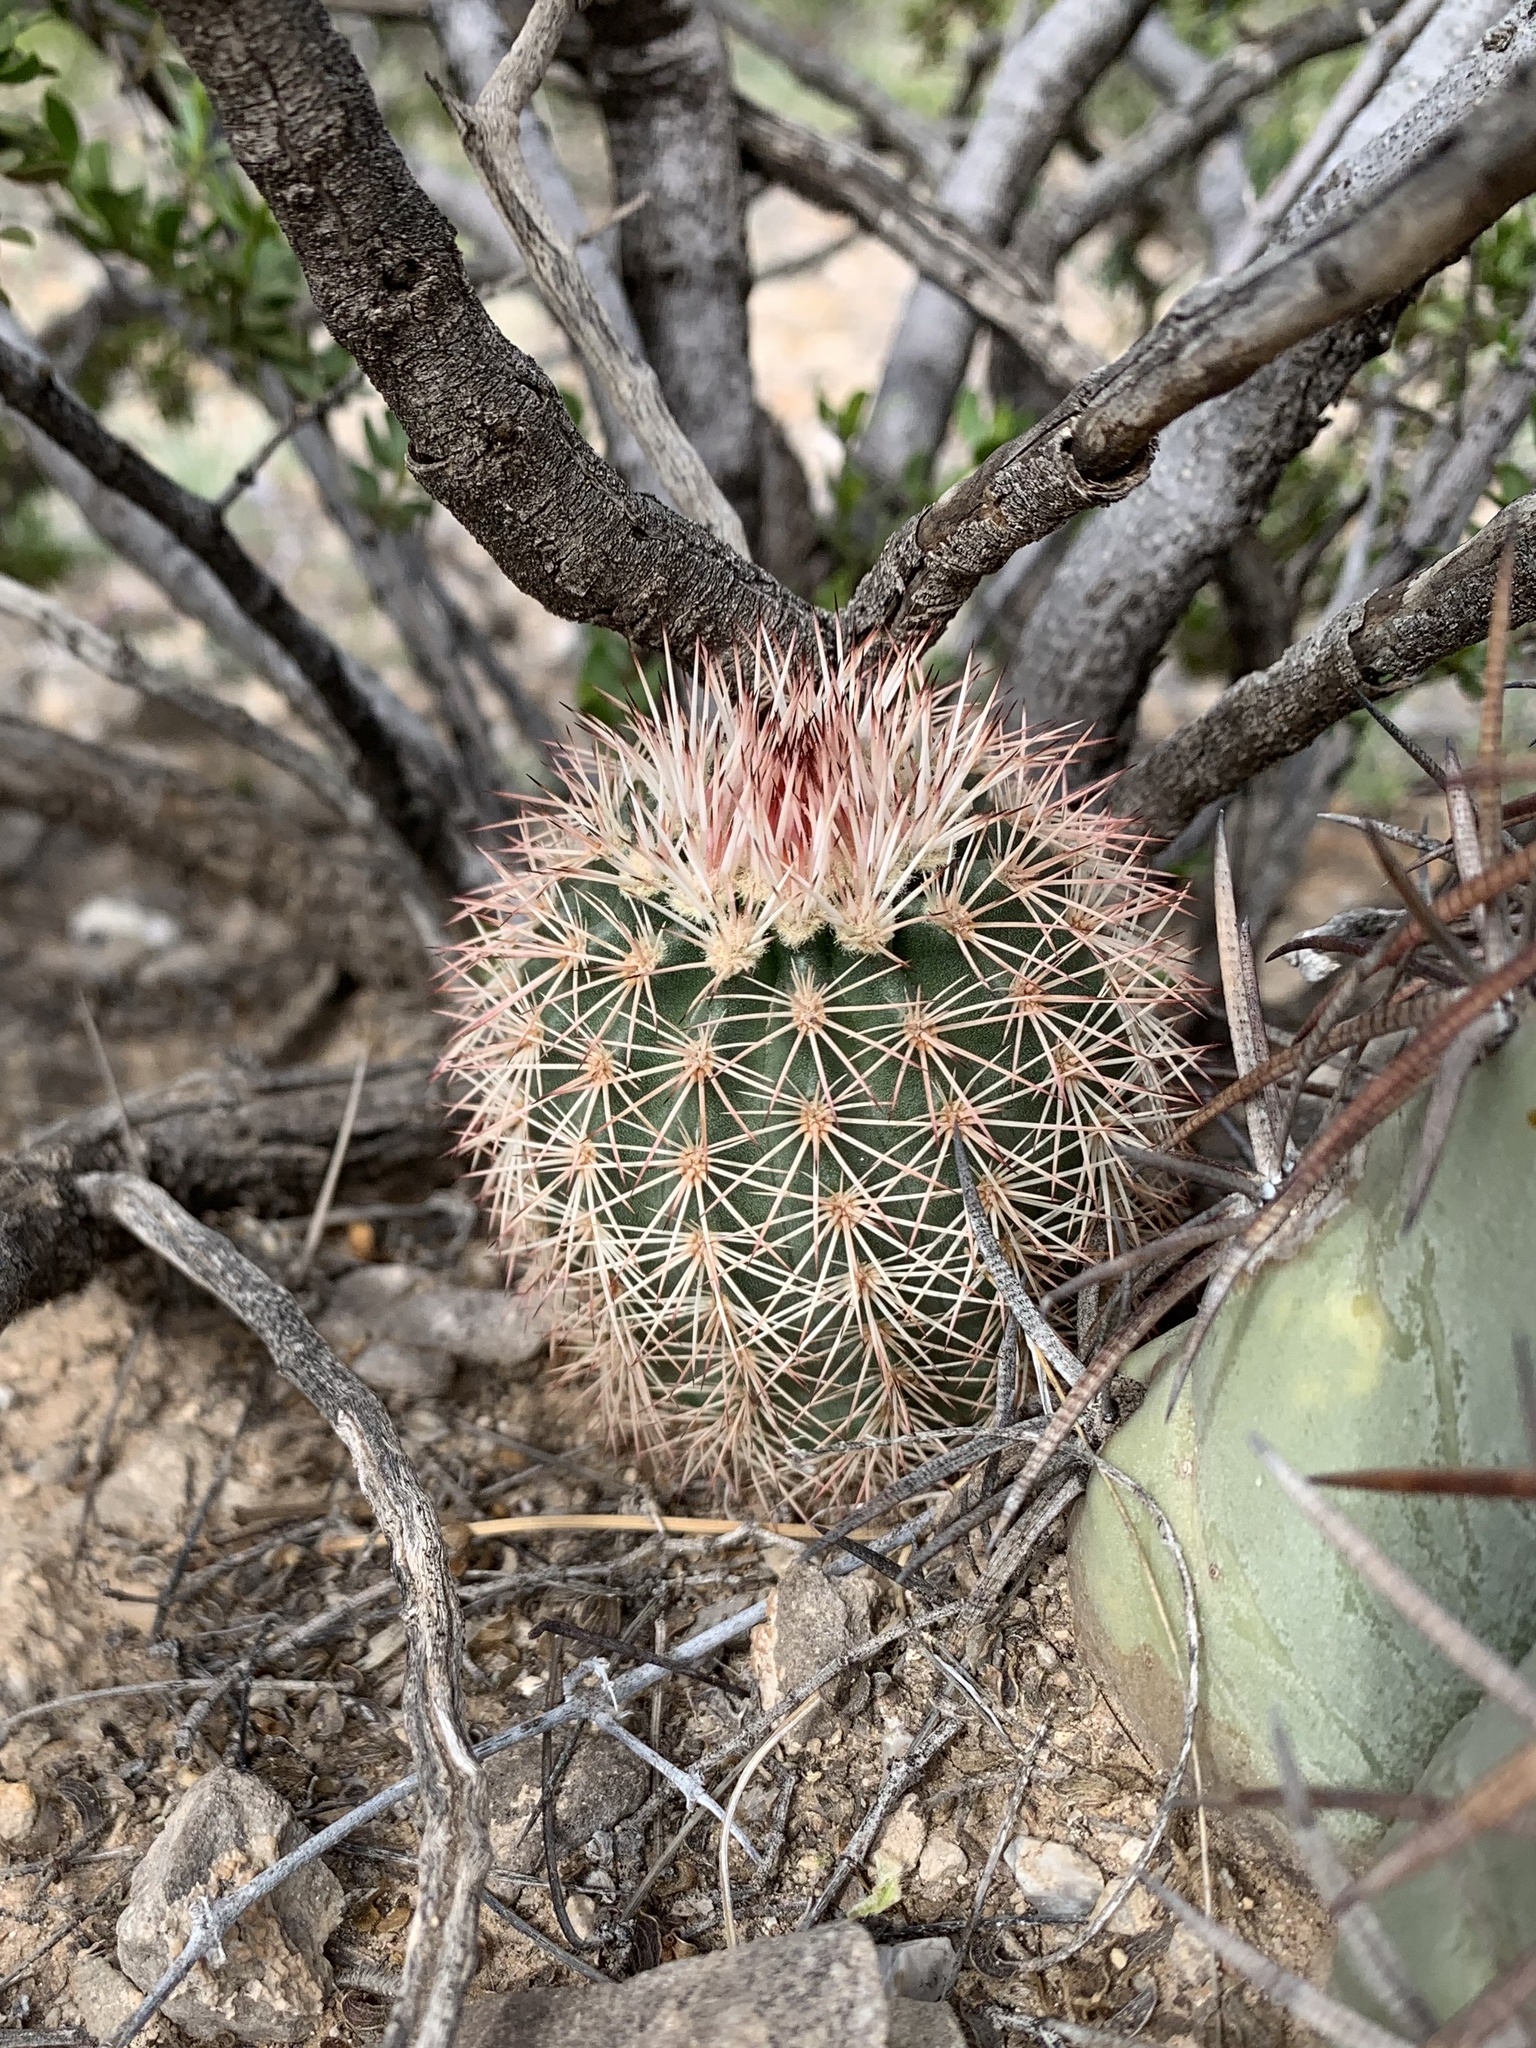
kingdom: Plantae
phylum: Tracheophyta
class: Magnoliopsida
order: Caryophyllales
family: Cactaceae
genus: Echinocereus
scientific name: Echinocereus dasyacanthus
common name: Spiny hedgehog cactus
